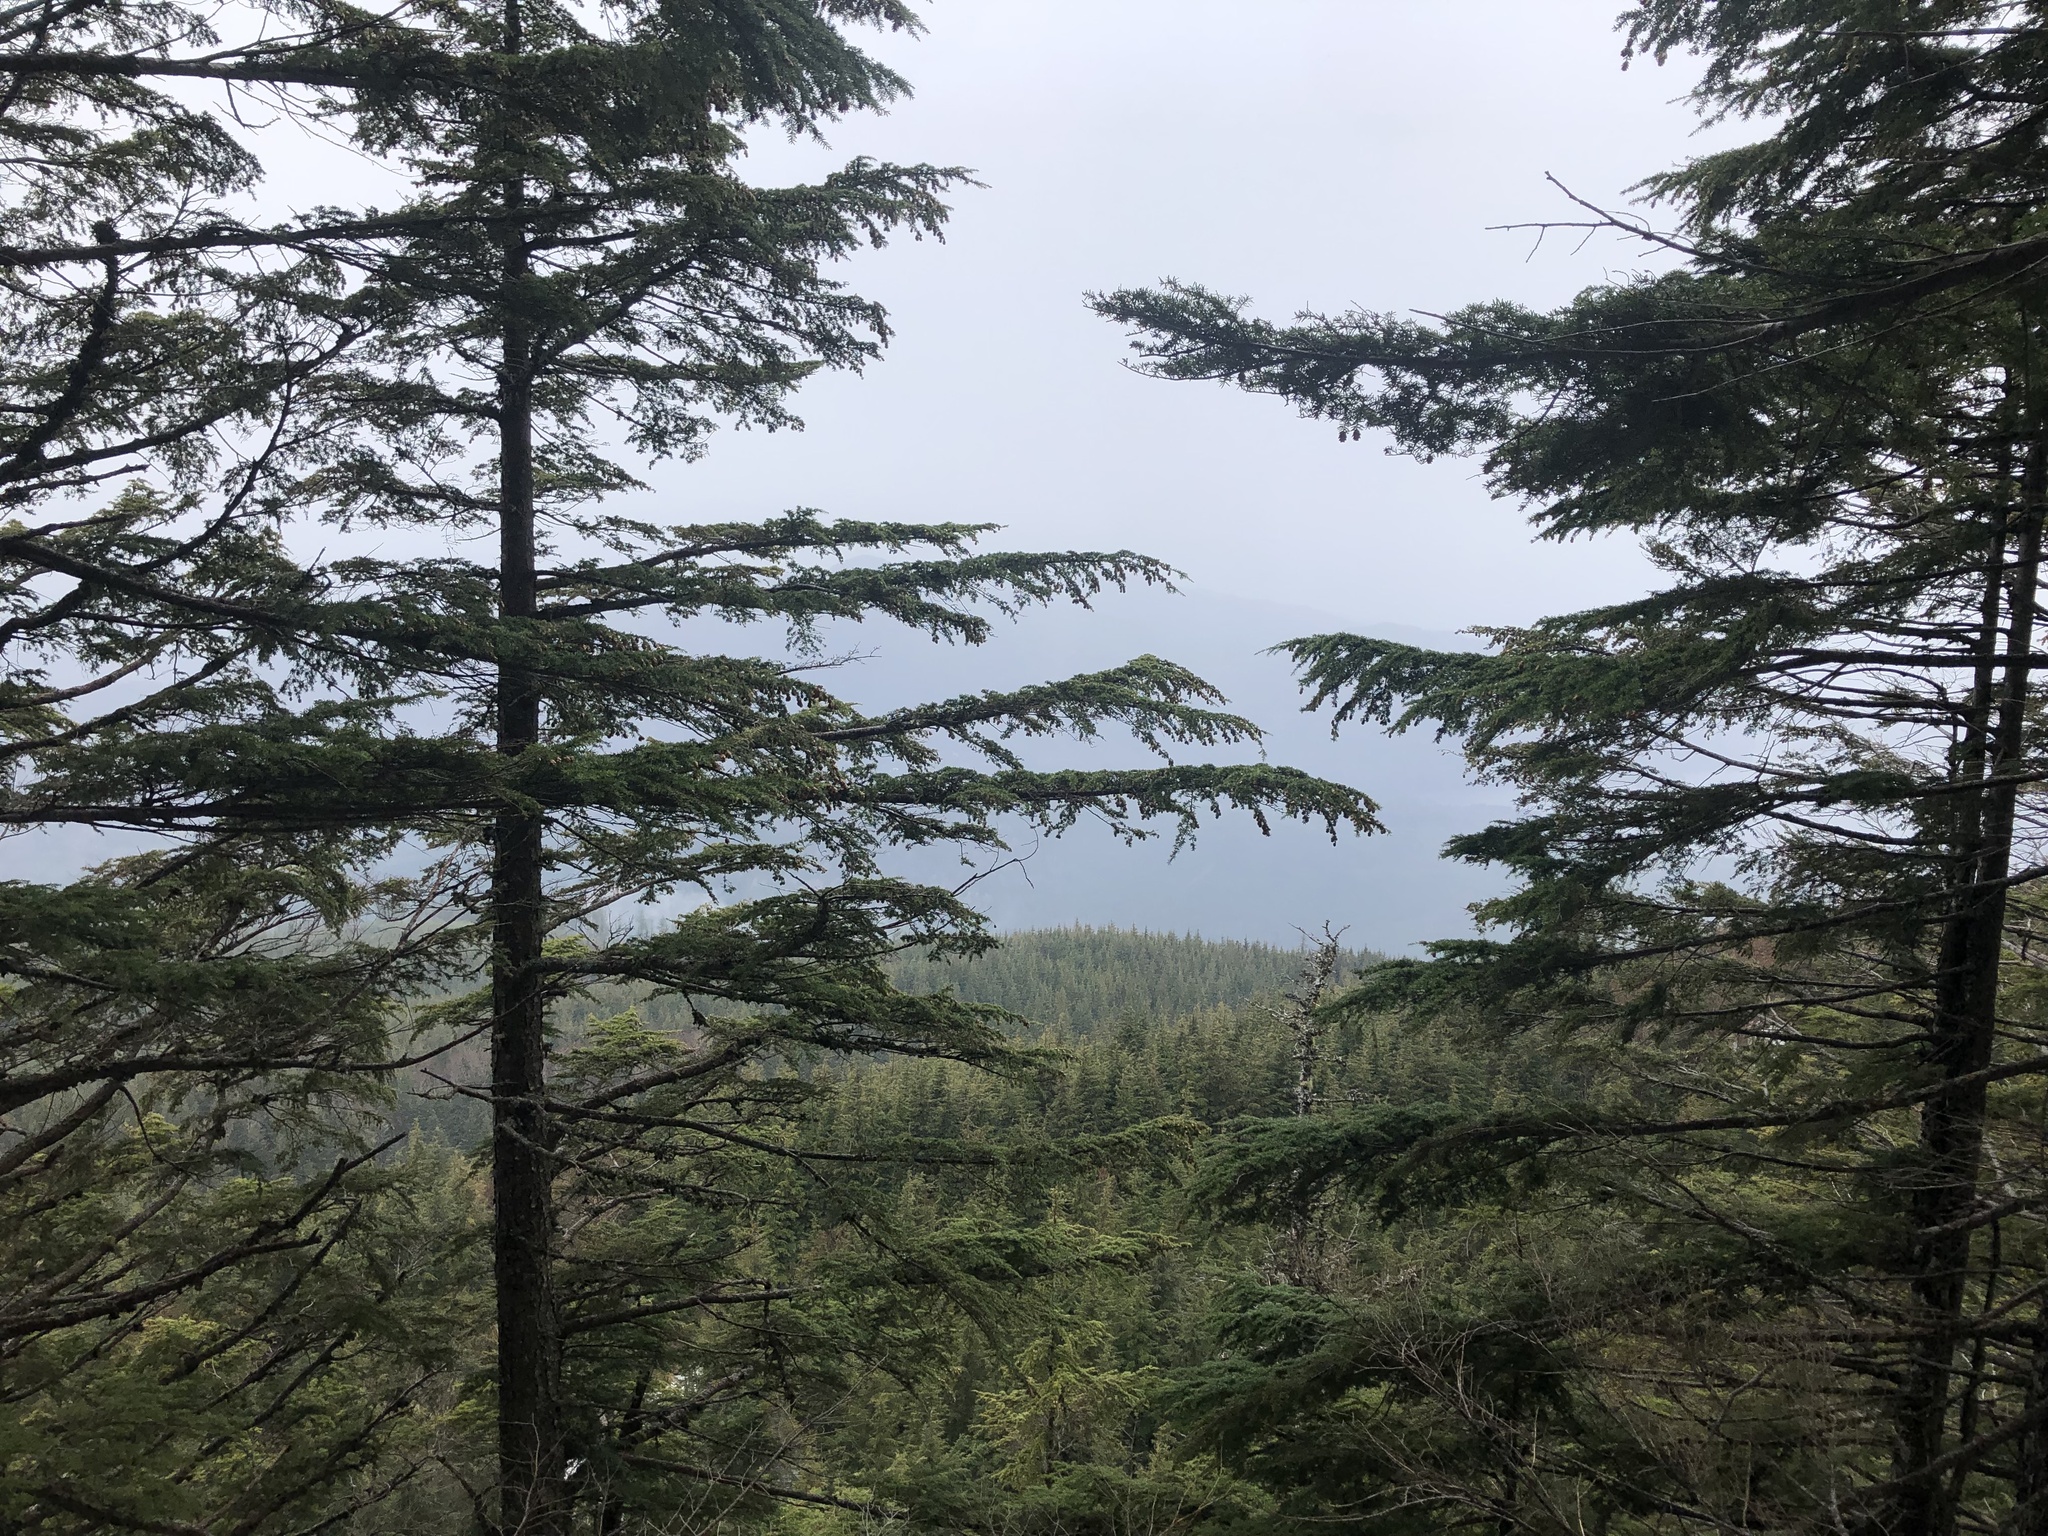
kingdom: Plantae
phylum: Tracheophyta
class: Pinopsida
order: Pinales
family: Pinaceae
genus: Tsuga
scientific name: Tsuga heterophylla
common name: Western hemlock
